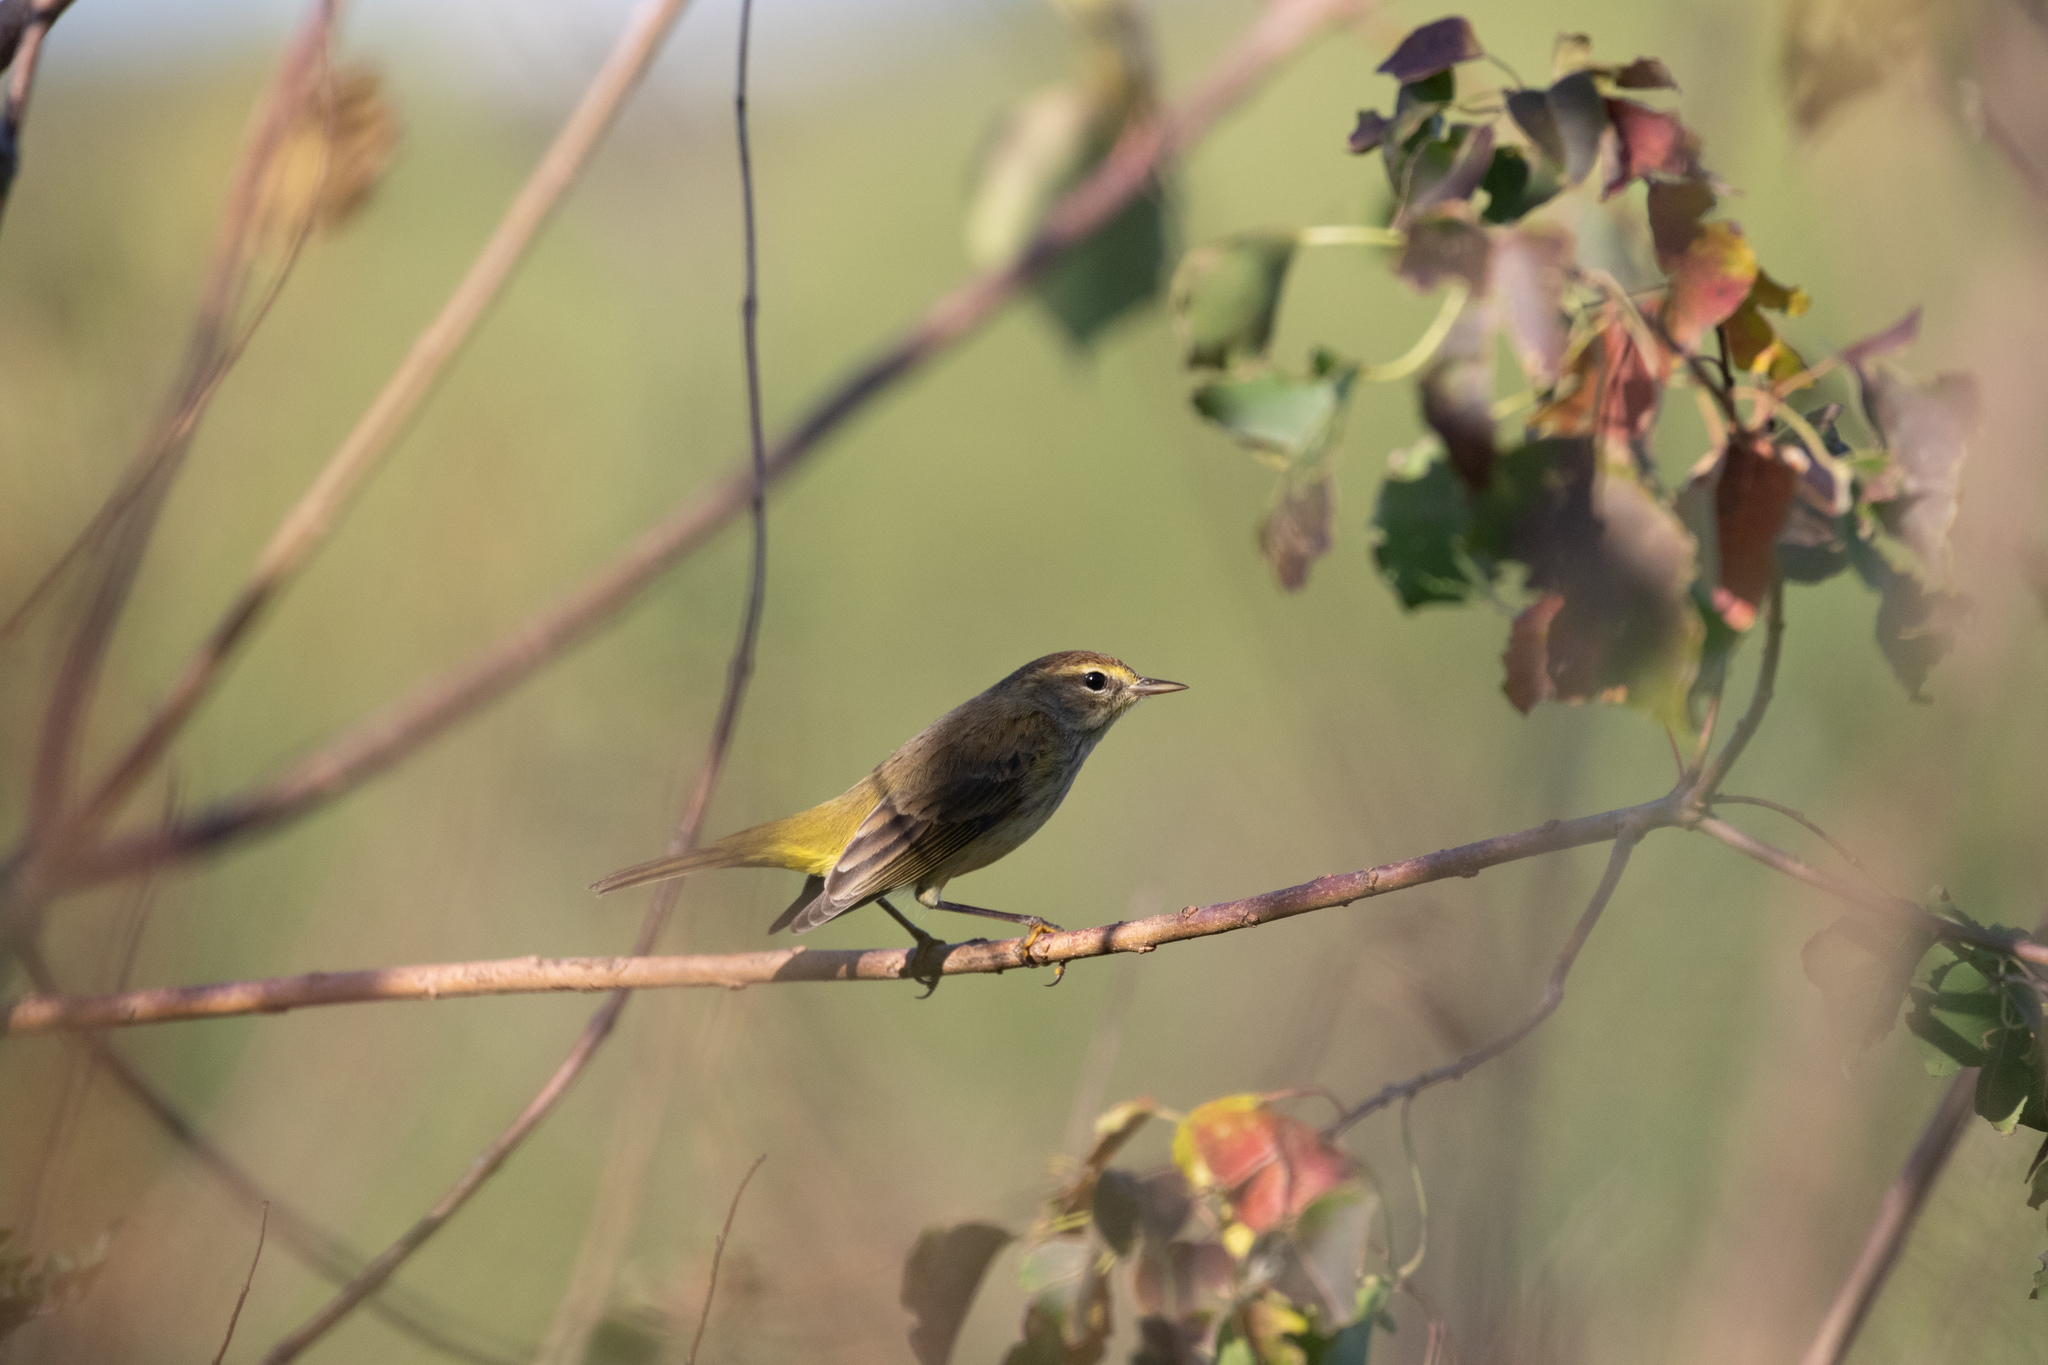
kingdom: Animalia
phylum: Chordata
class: Aves
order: Passeriformes
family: Parulidae
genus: Setophaga
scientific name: Setophaga palmarum
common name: Palm warbler
